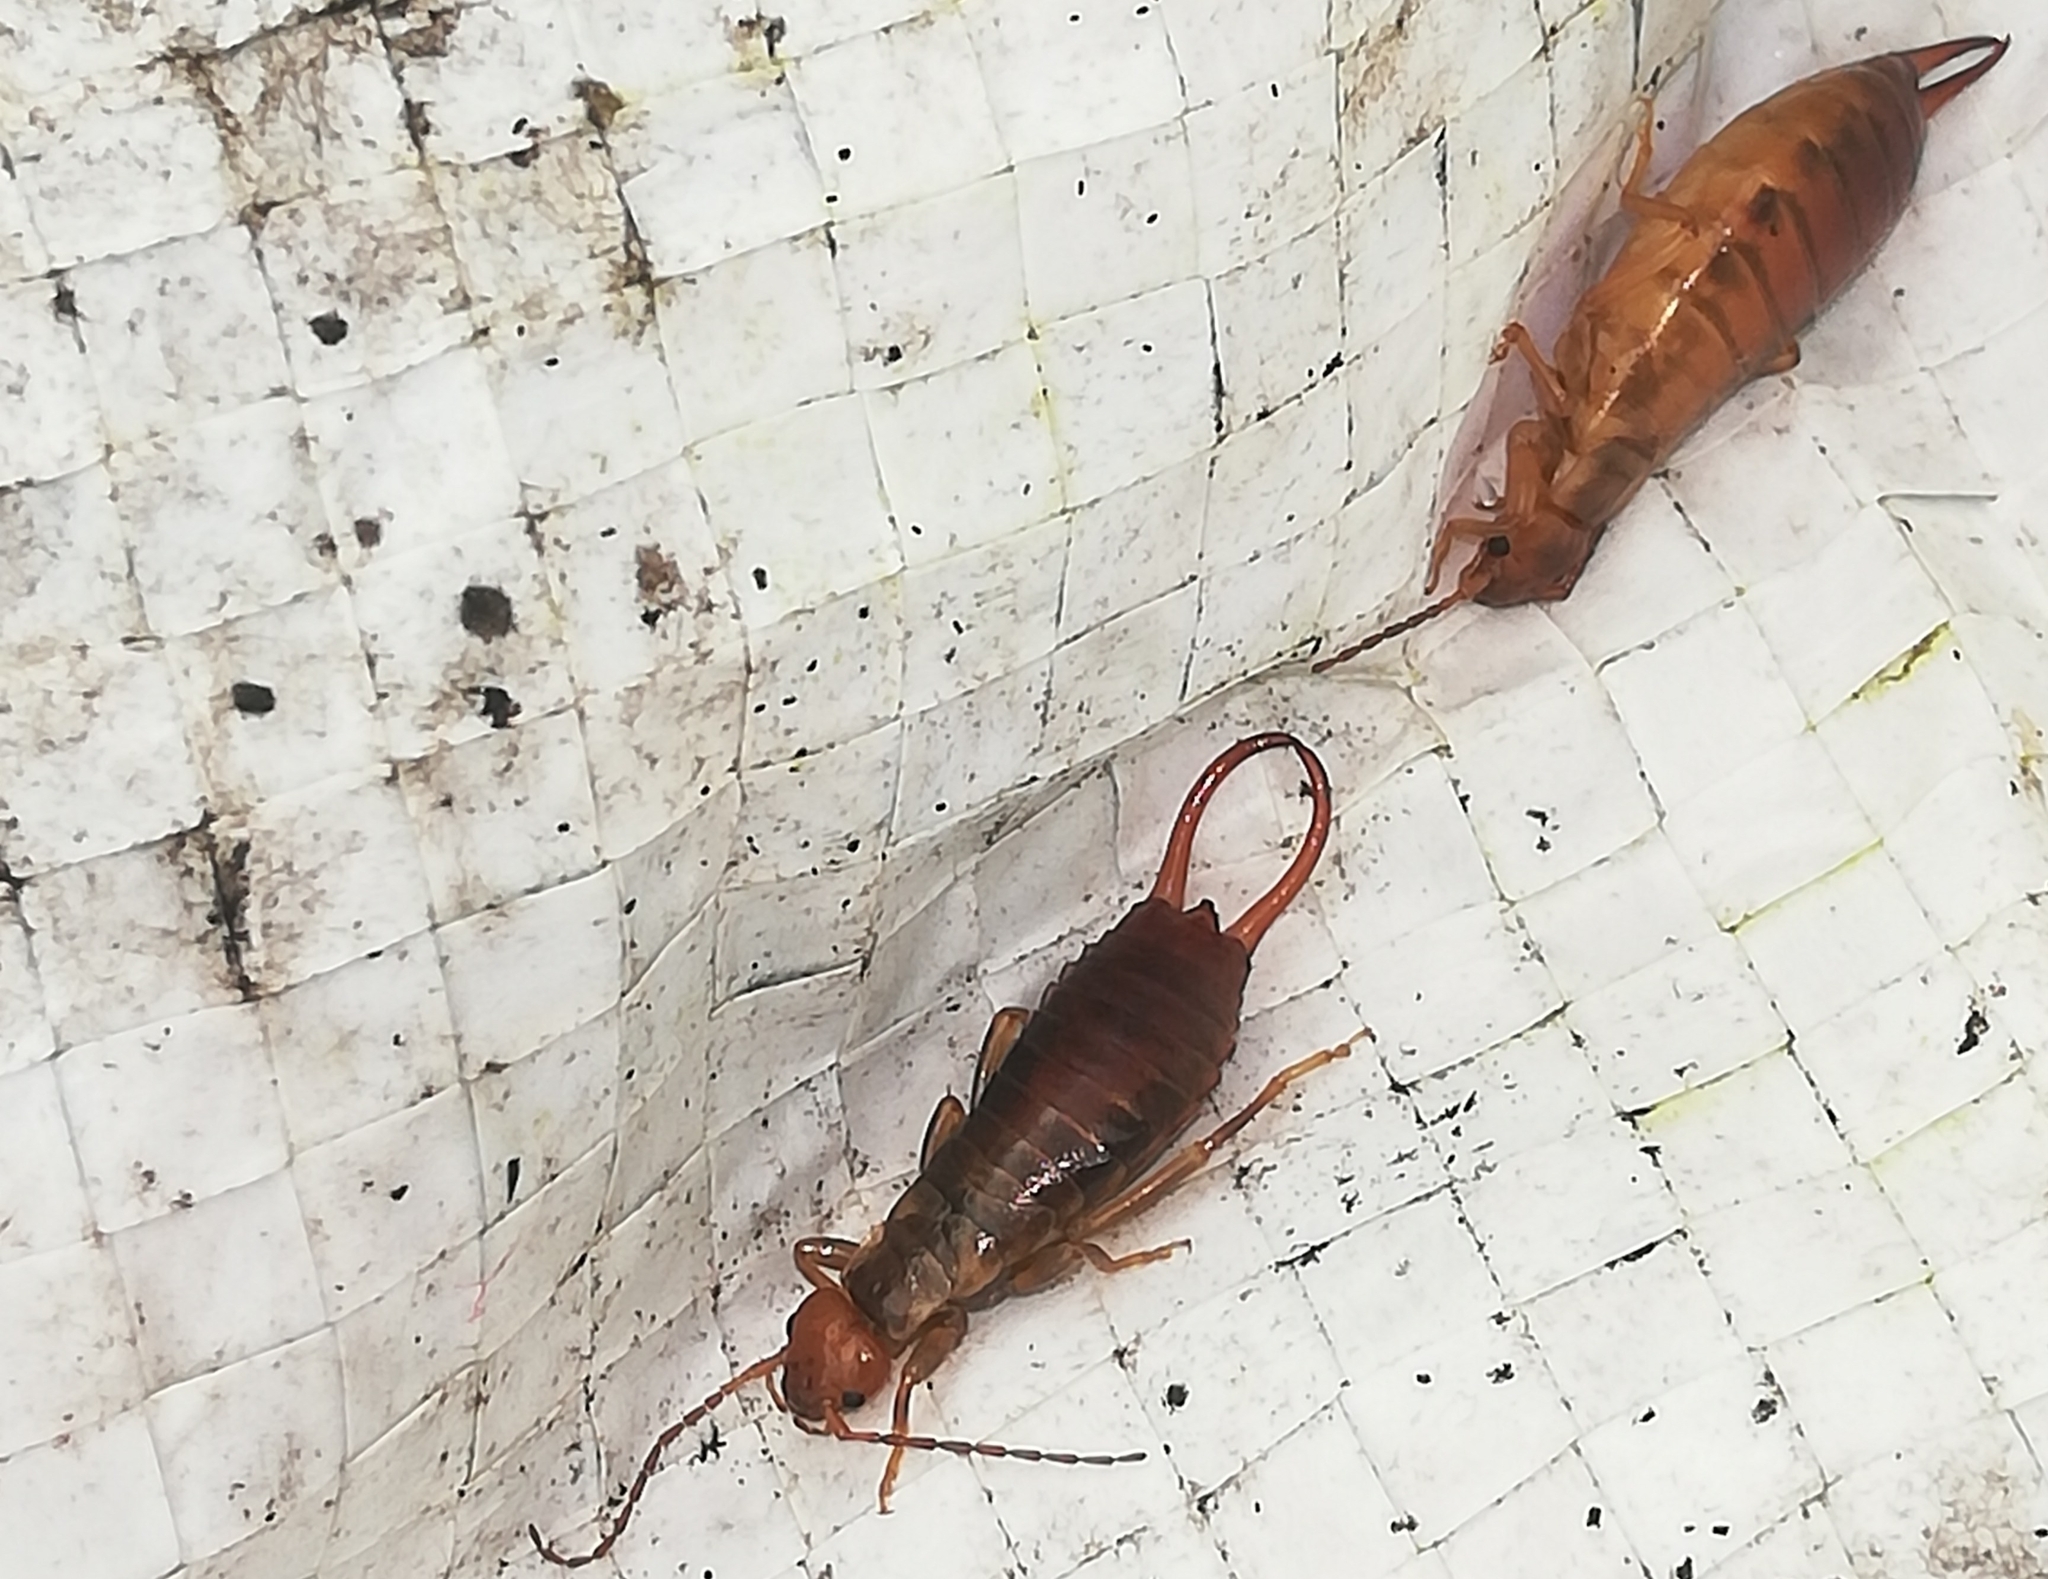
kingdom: Animalia
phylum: Arthropoda
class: Insecta
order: Dermaptera
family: Forficulidae
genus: Chelidurella
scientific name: Chelidurella acanthopygia
